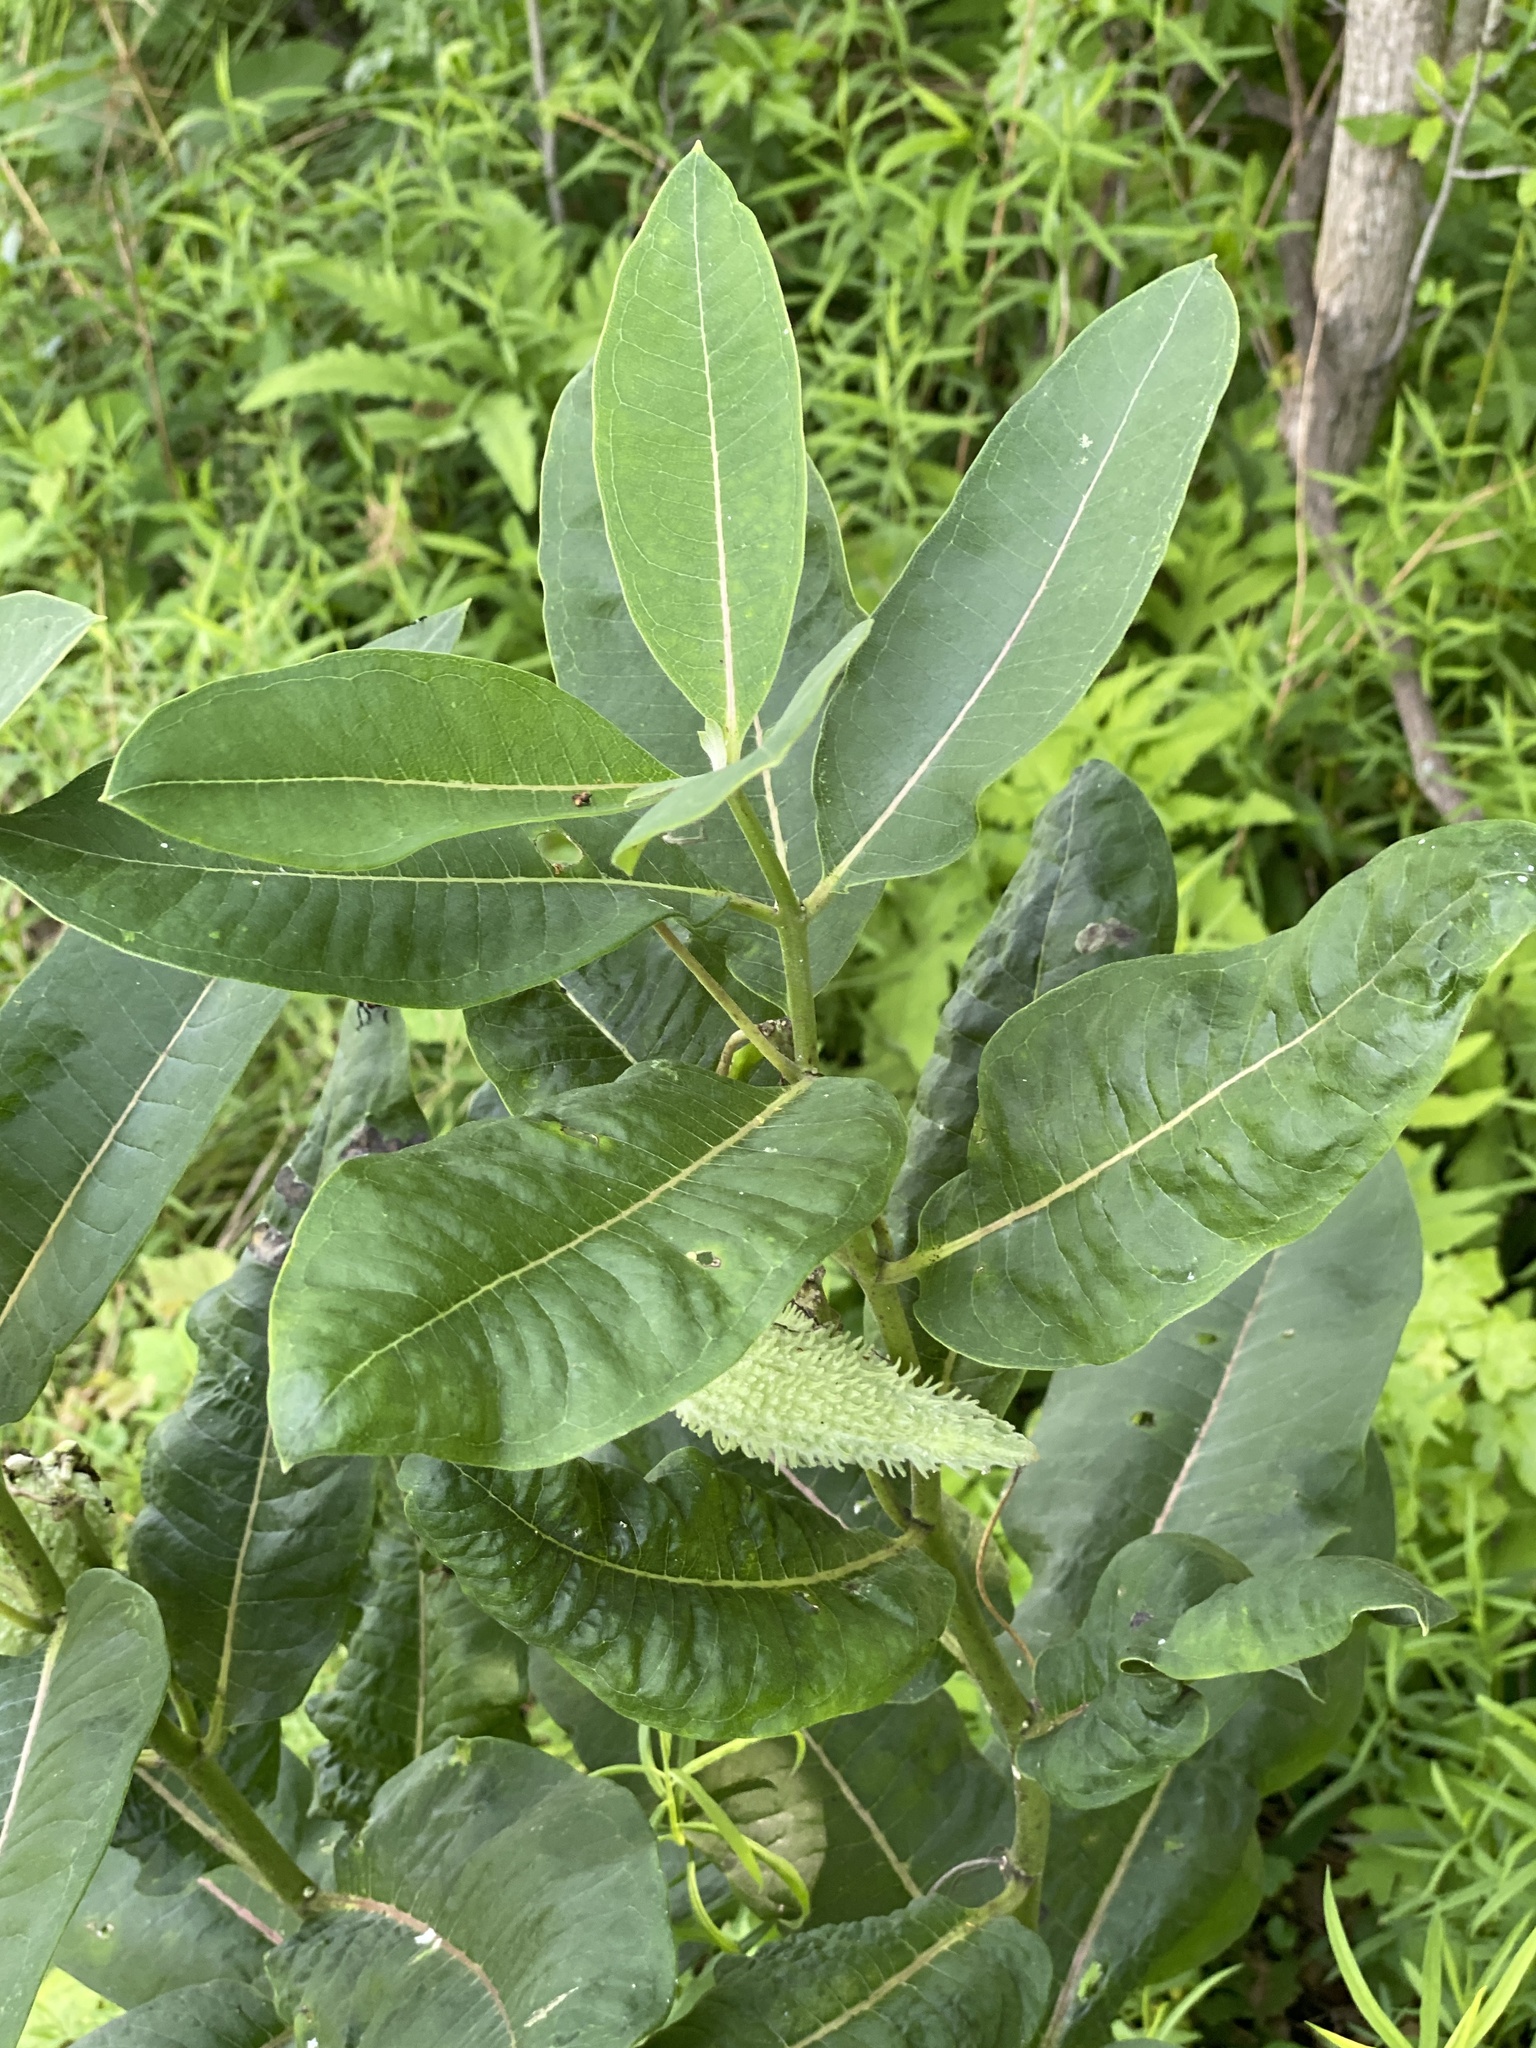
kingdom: Plantae
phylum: Tracheophyta
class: Magnoliopsida
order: Gentianales
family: Apocynaceae
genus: Asclepias
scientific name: Asclepias syriaca
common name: Common milkweed
